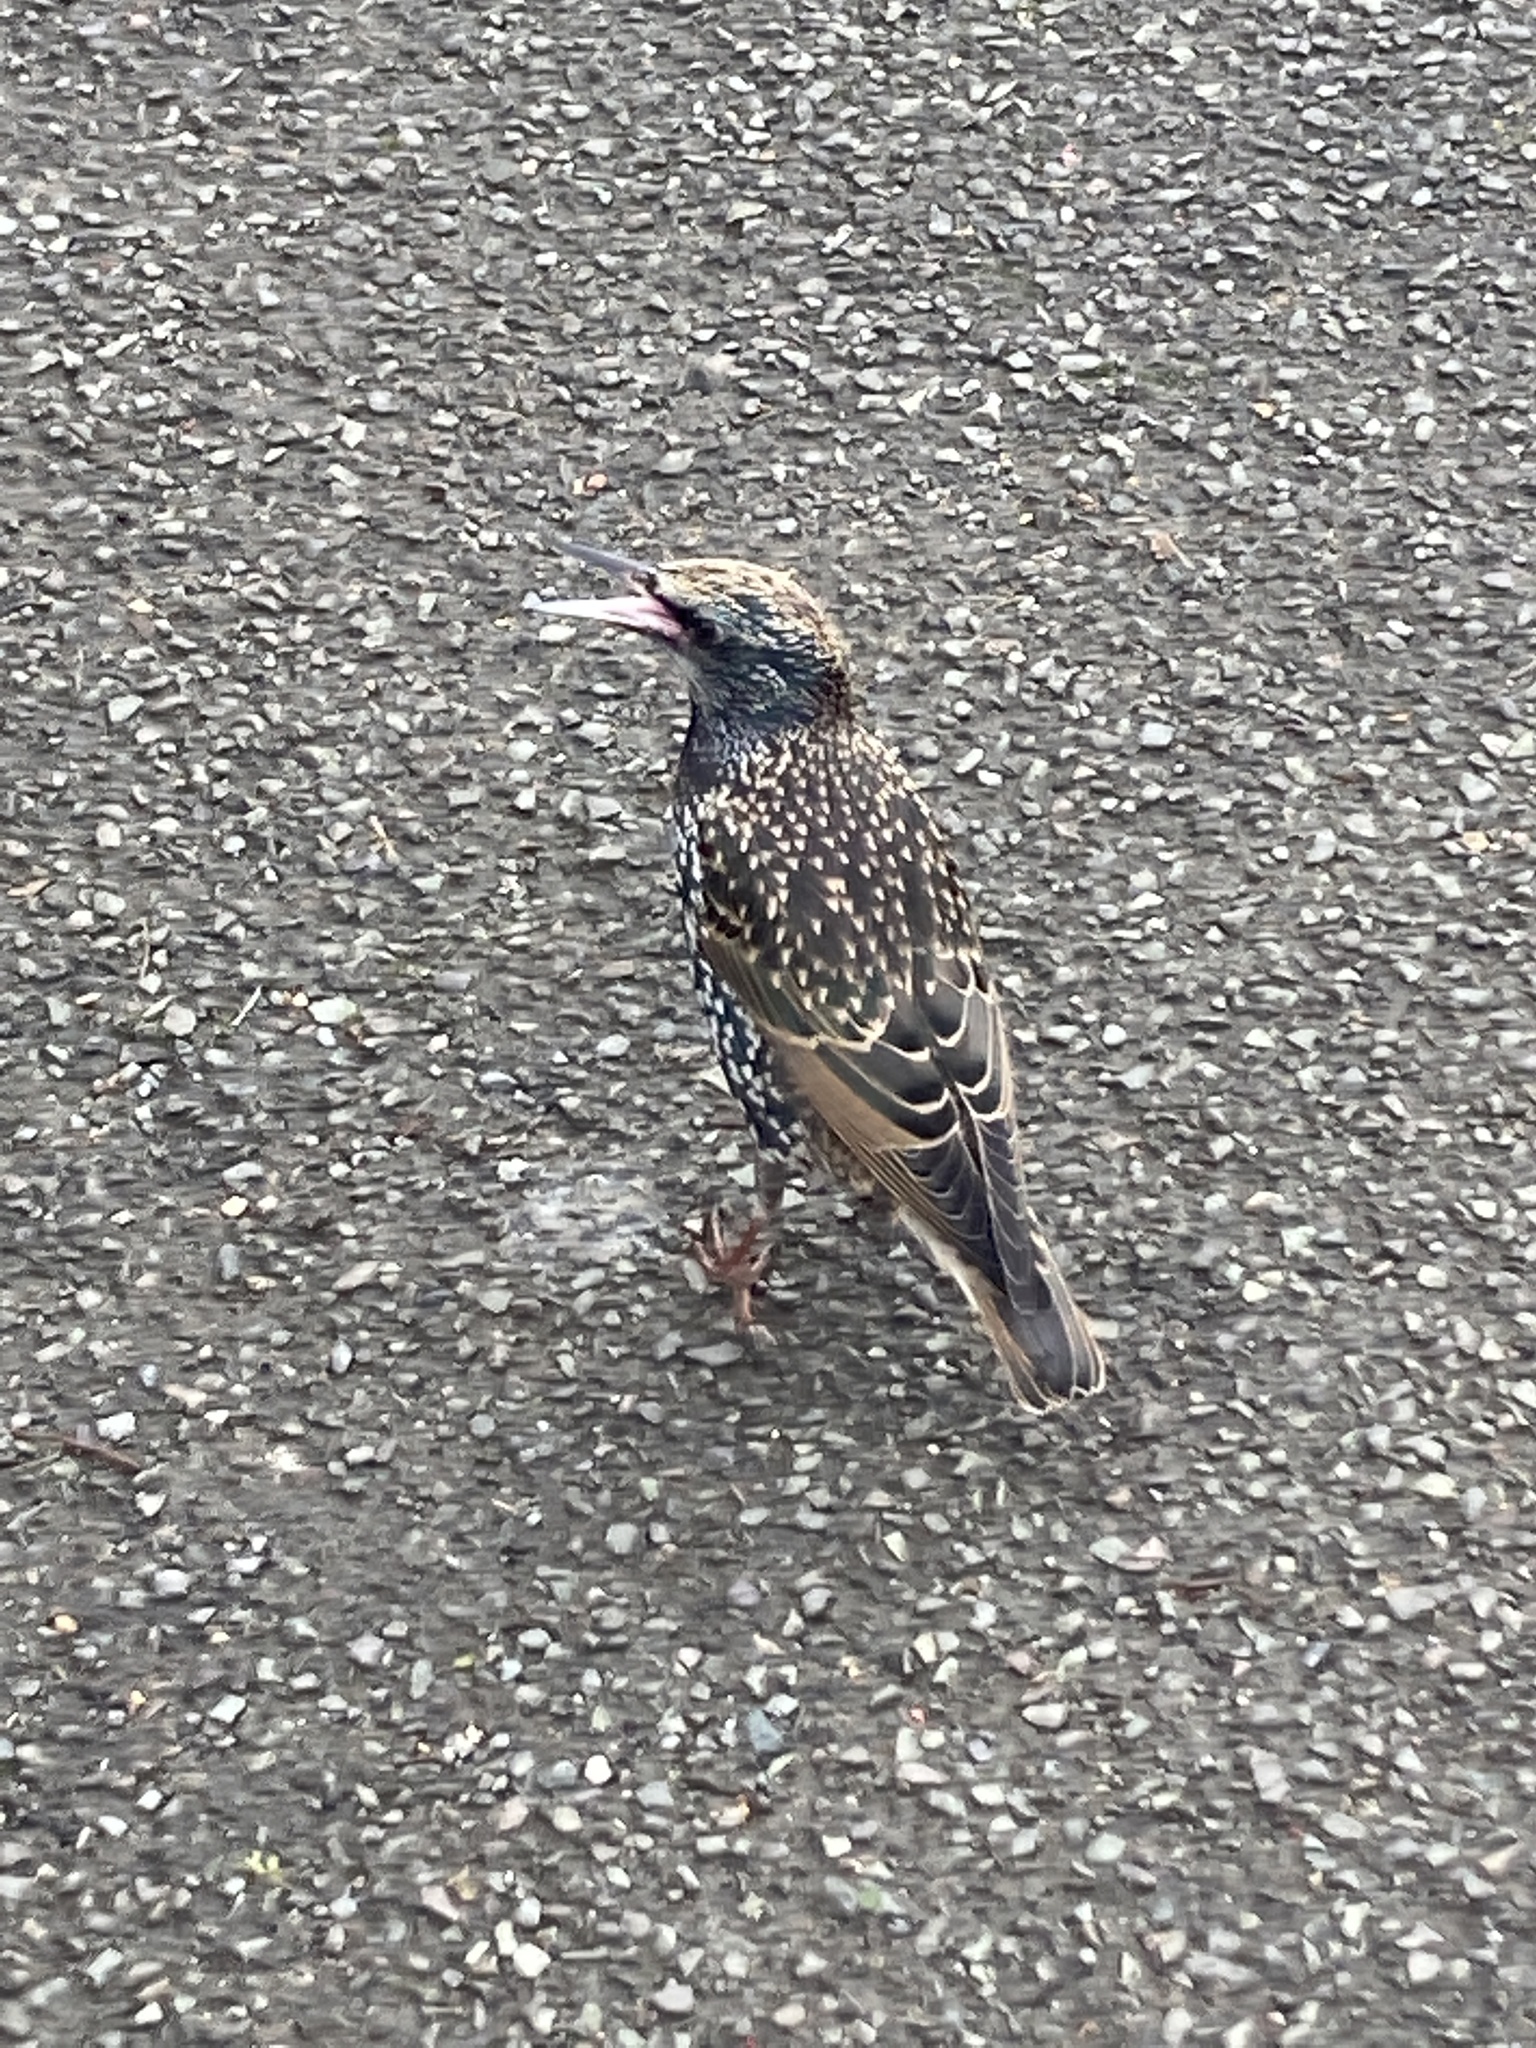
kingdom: Animalia
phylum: Chordata
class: Aves
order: Passeriformes
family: Sturnidae
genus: Sturnus
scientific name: Sturnus vulgaris
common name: Common starling
